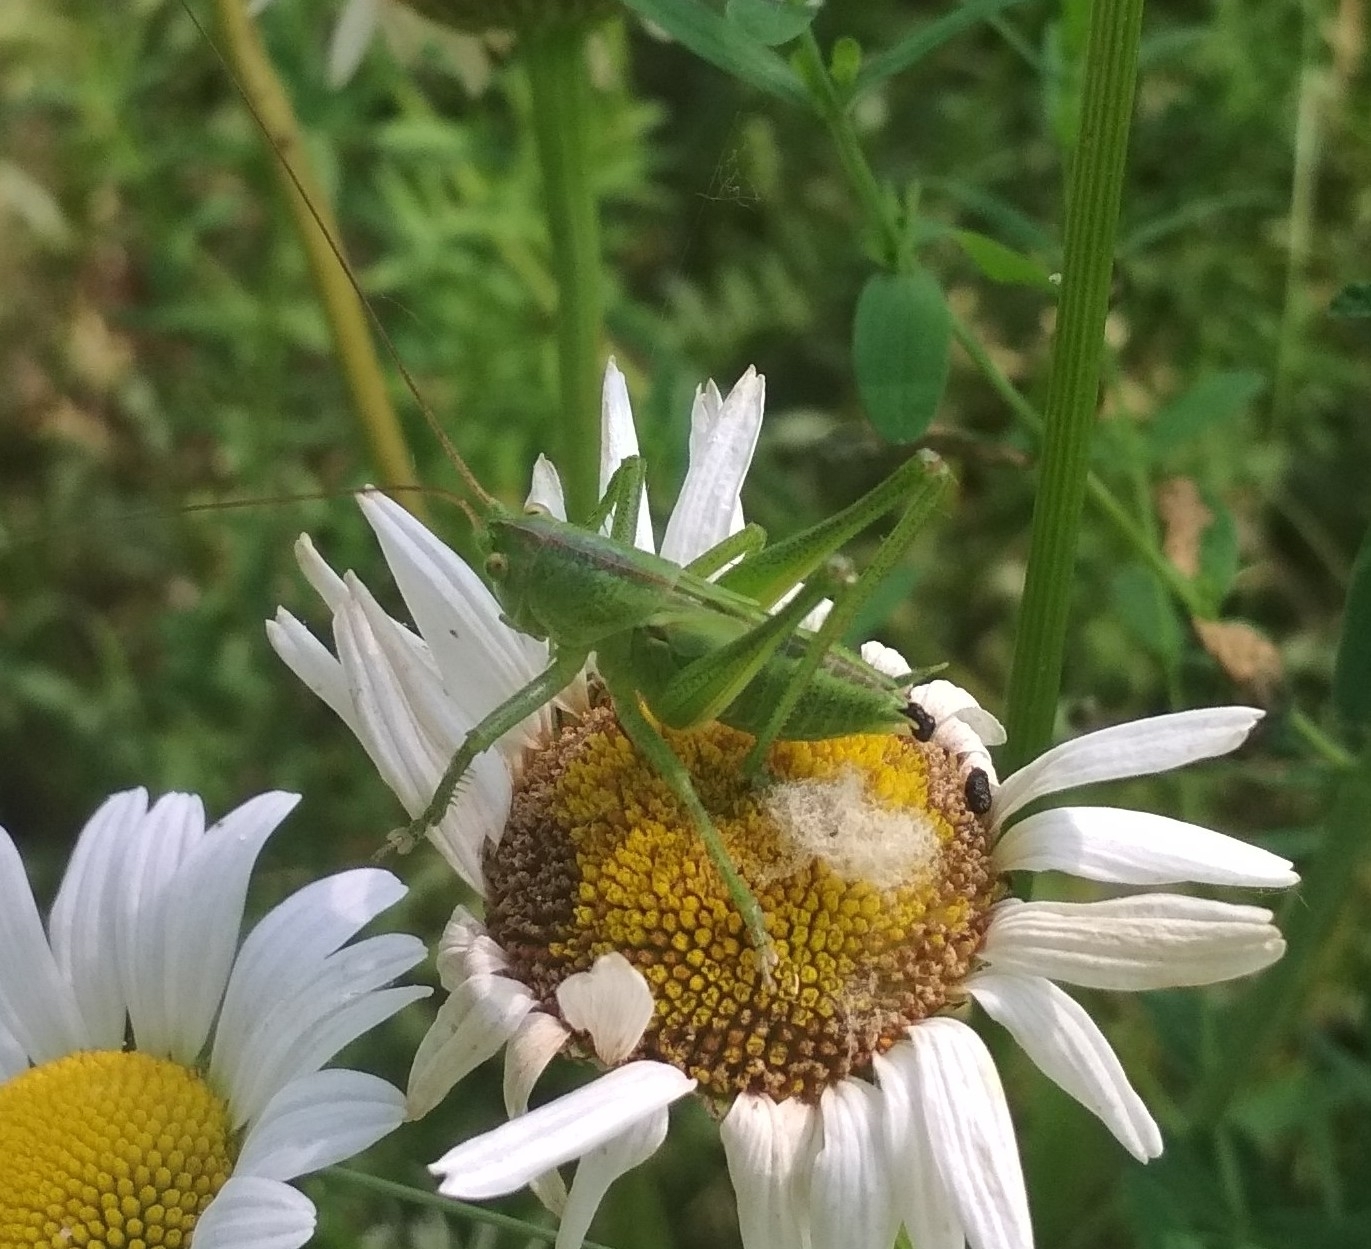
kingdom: Animalia
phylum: Arthropoda
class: Insecta
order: Orthoptera
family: Tettigoniidae
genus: Tettigonia
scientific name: Tettigonia viridissima
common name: Great green bush-cricket
